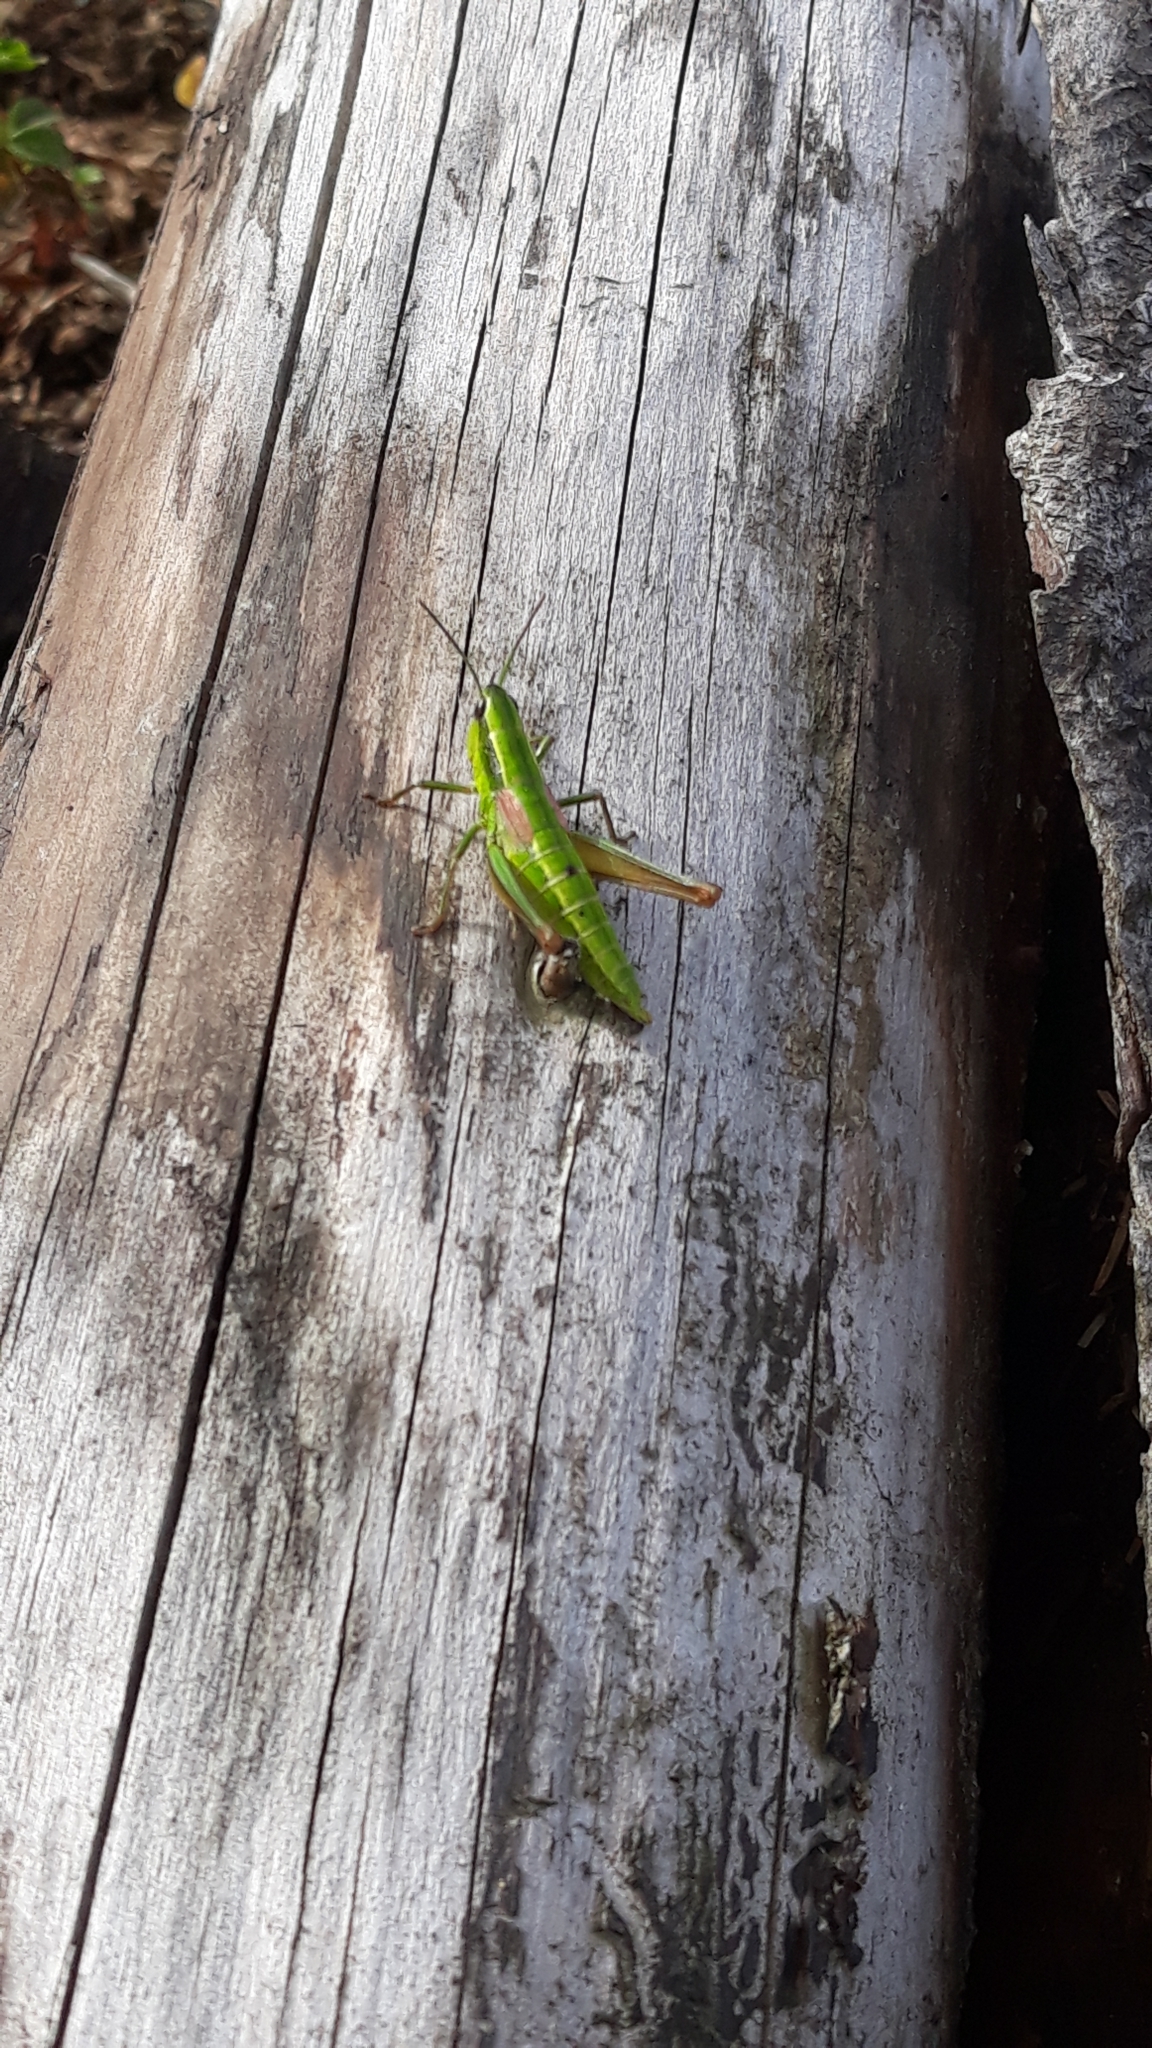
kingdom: Animalia
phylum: Arthropoda
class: Insecta
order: Orthoptera
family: Acrididae
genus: Euthystira
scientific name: Euthystira brachyptera
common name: Small gold grasshopper
